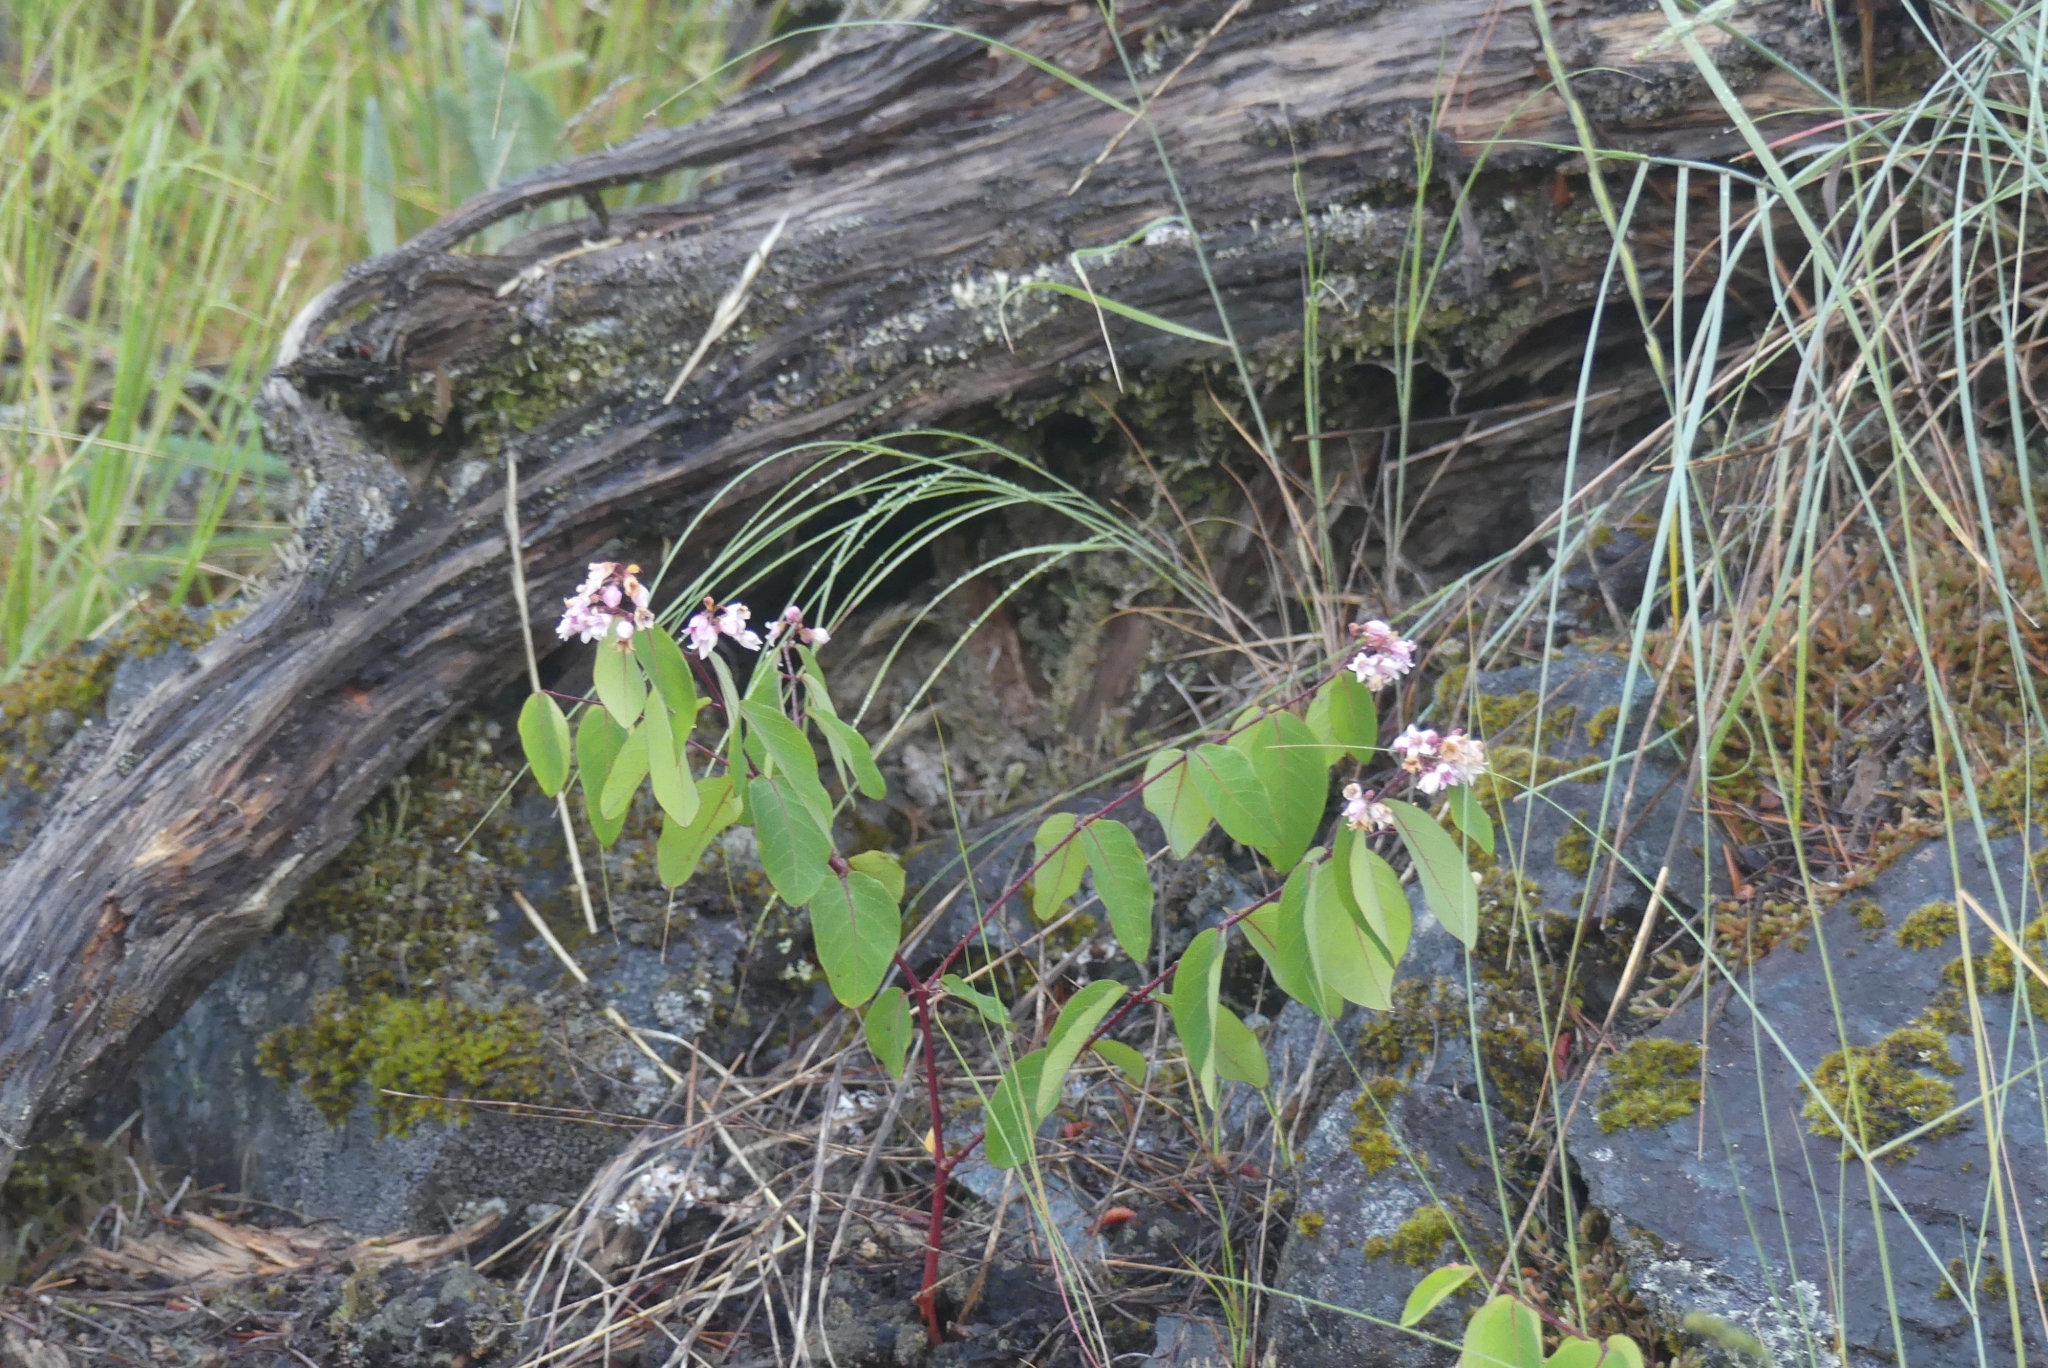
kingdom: Plantae
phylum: Tracheophyta
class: Magnoliopsida
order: Gentianales
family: Apocynaceae
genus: Apocynum
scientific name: Apocynum androsaemifolium
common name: Spreading dogbane
